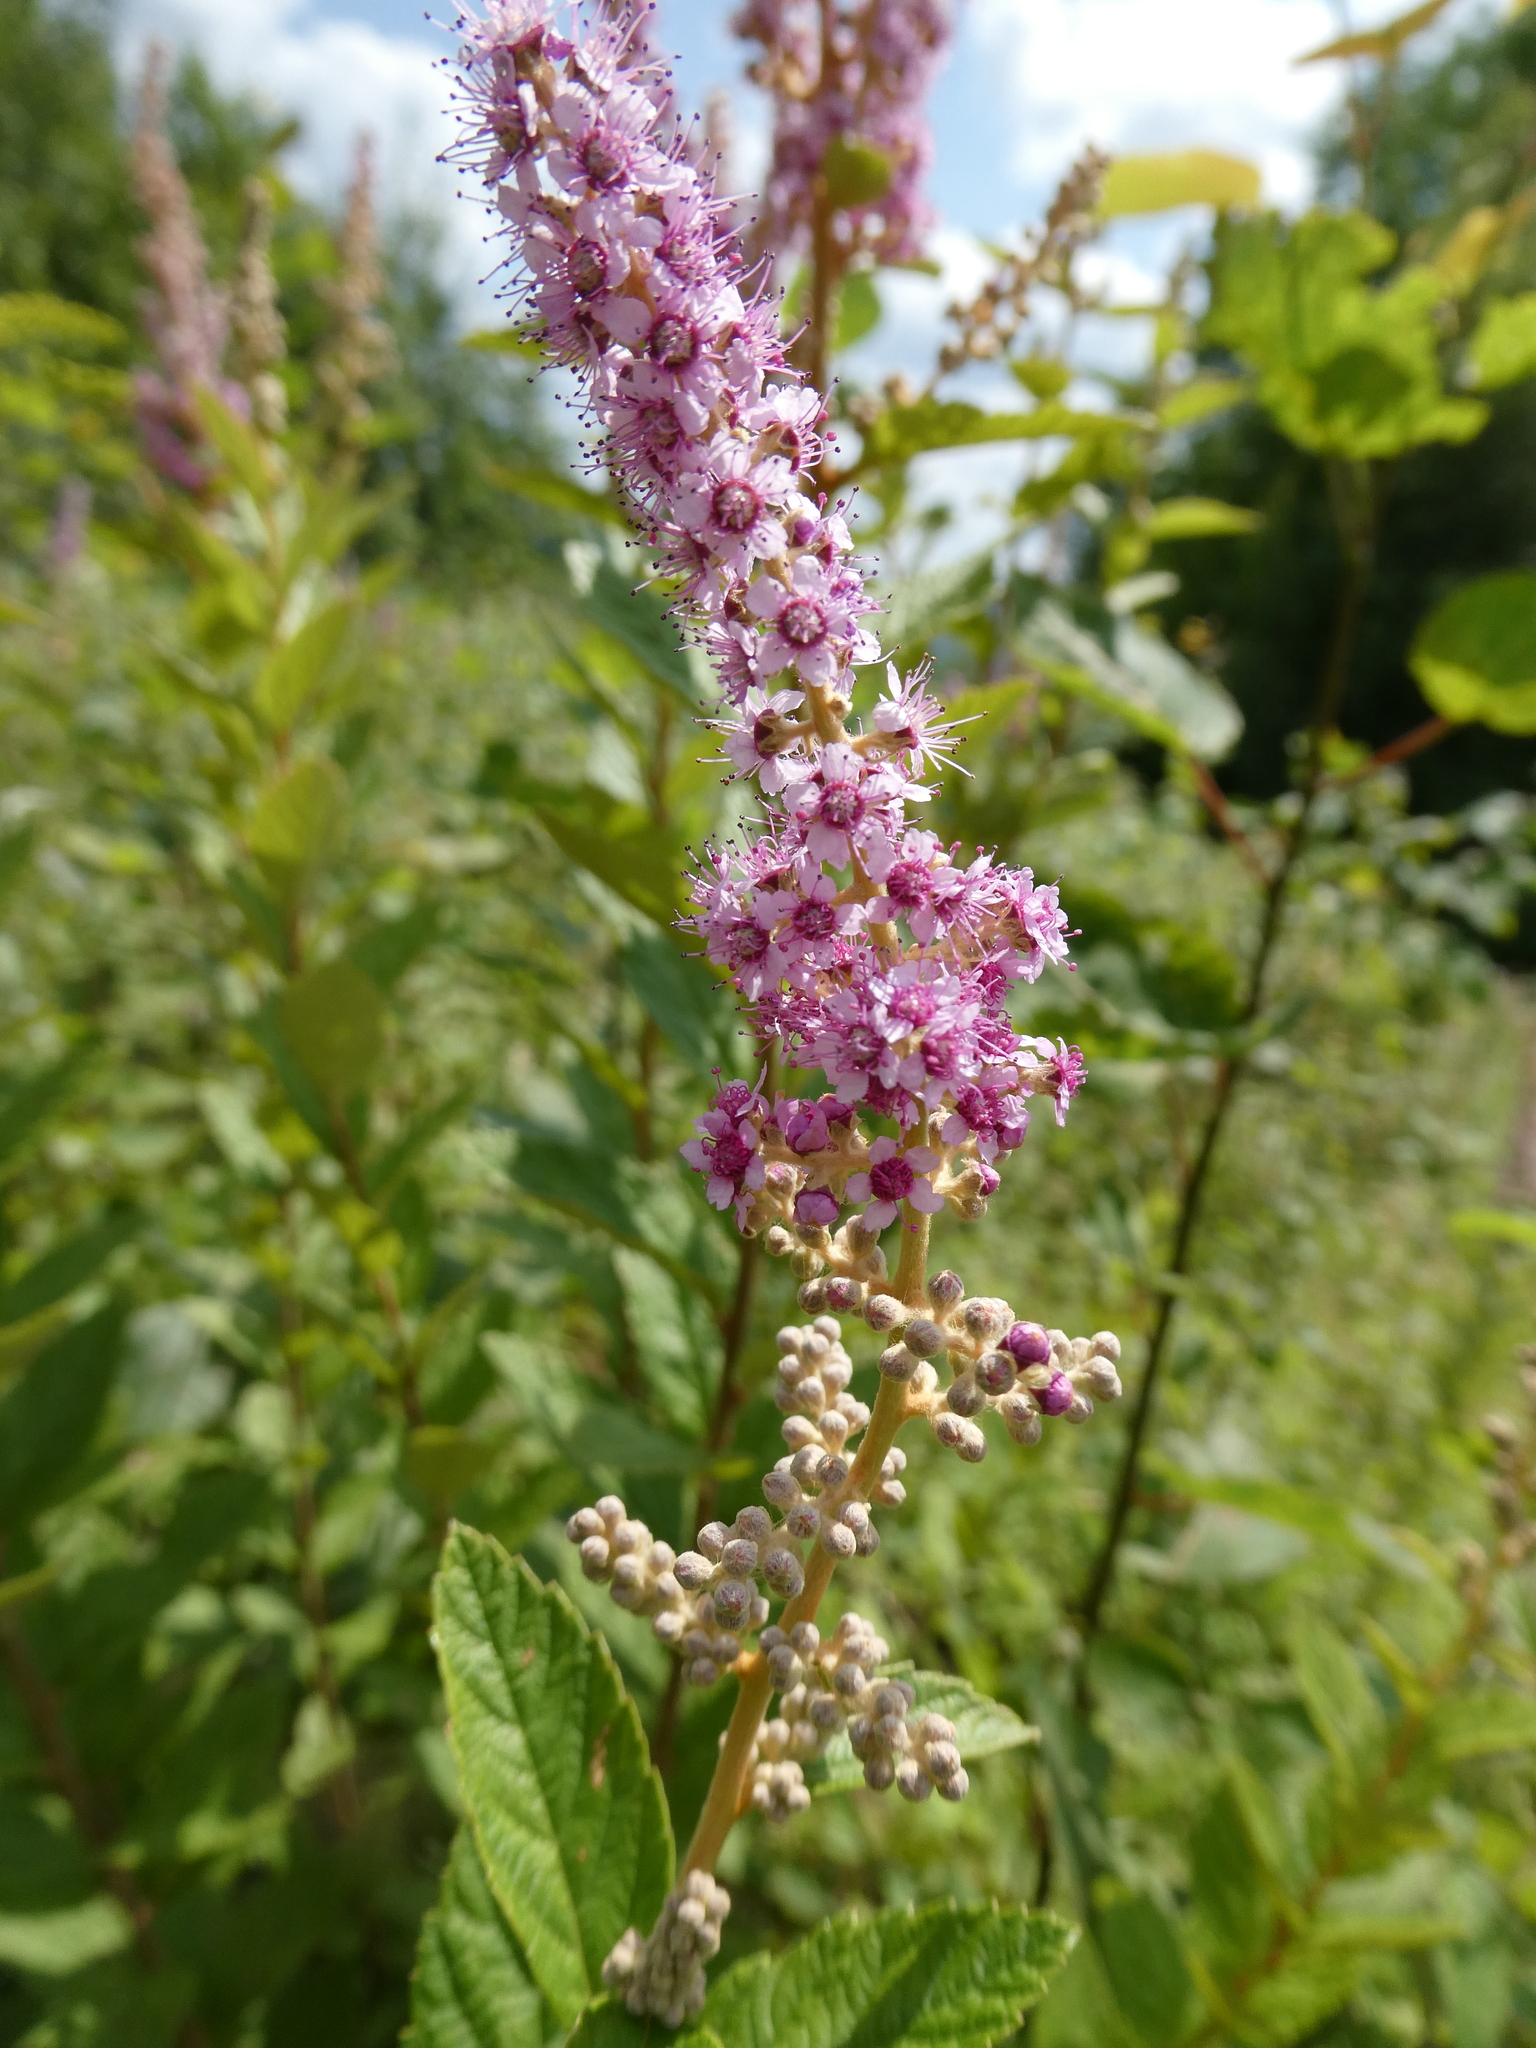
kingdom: Plantae
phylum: Tracheophyta
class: Magnoliopsida
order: Rosales
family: Rosaceae
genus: Spiraea
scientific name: Spiraea tomentosa
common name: Hardhack
